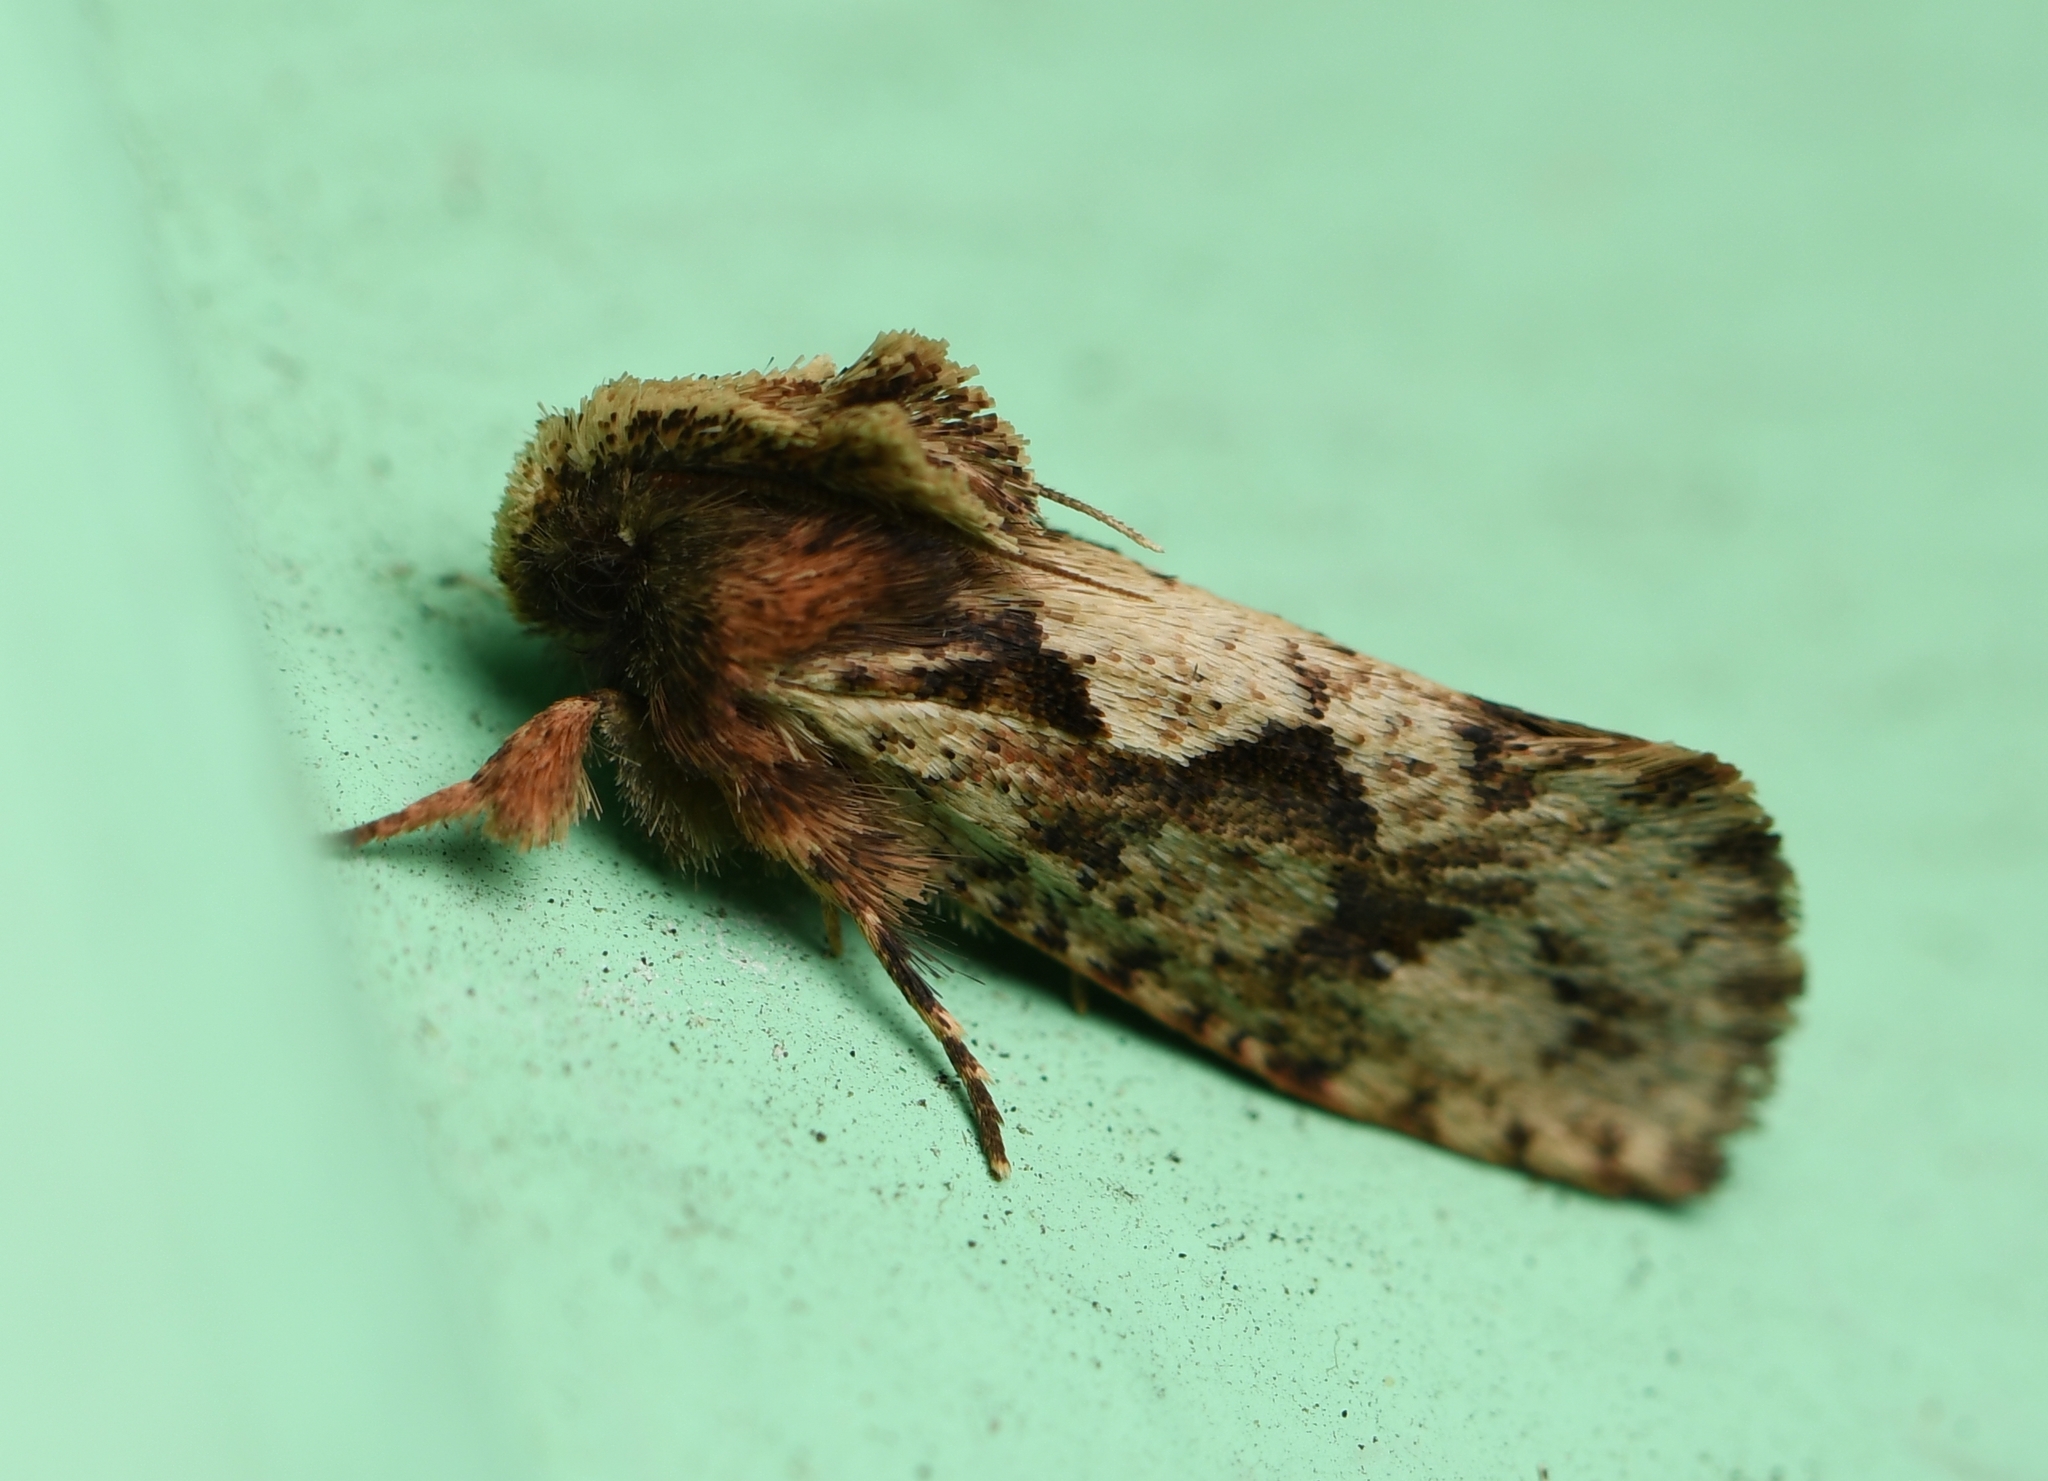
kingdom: Animalia
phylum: Arthropoda
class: Insecta
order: Lepidoptera
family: Tineidae
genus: Acrolophus
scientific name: Acrolophus walsinghami
